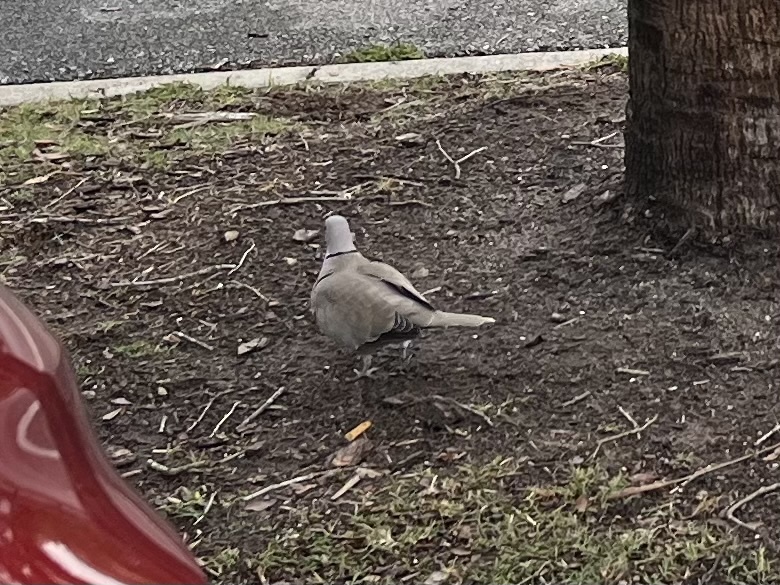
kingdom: Animalia
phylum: Chordata
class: Aves
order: Columbiformes
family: Columbidae
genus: Streptopelia
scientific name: Streptopelia decaocto
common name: Eurasian collared dove
